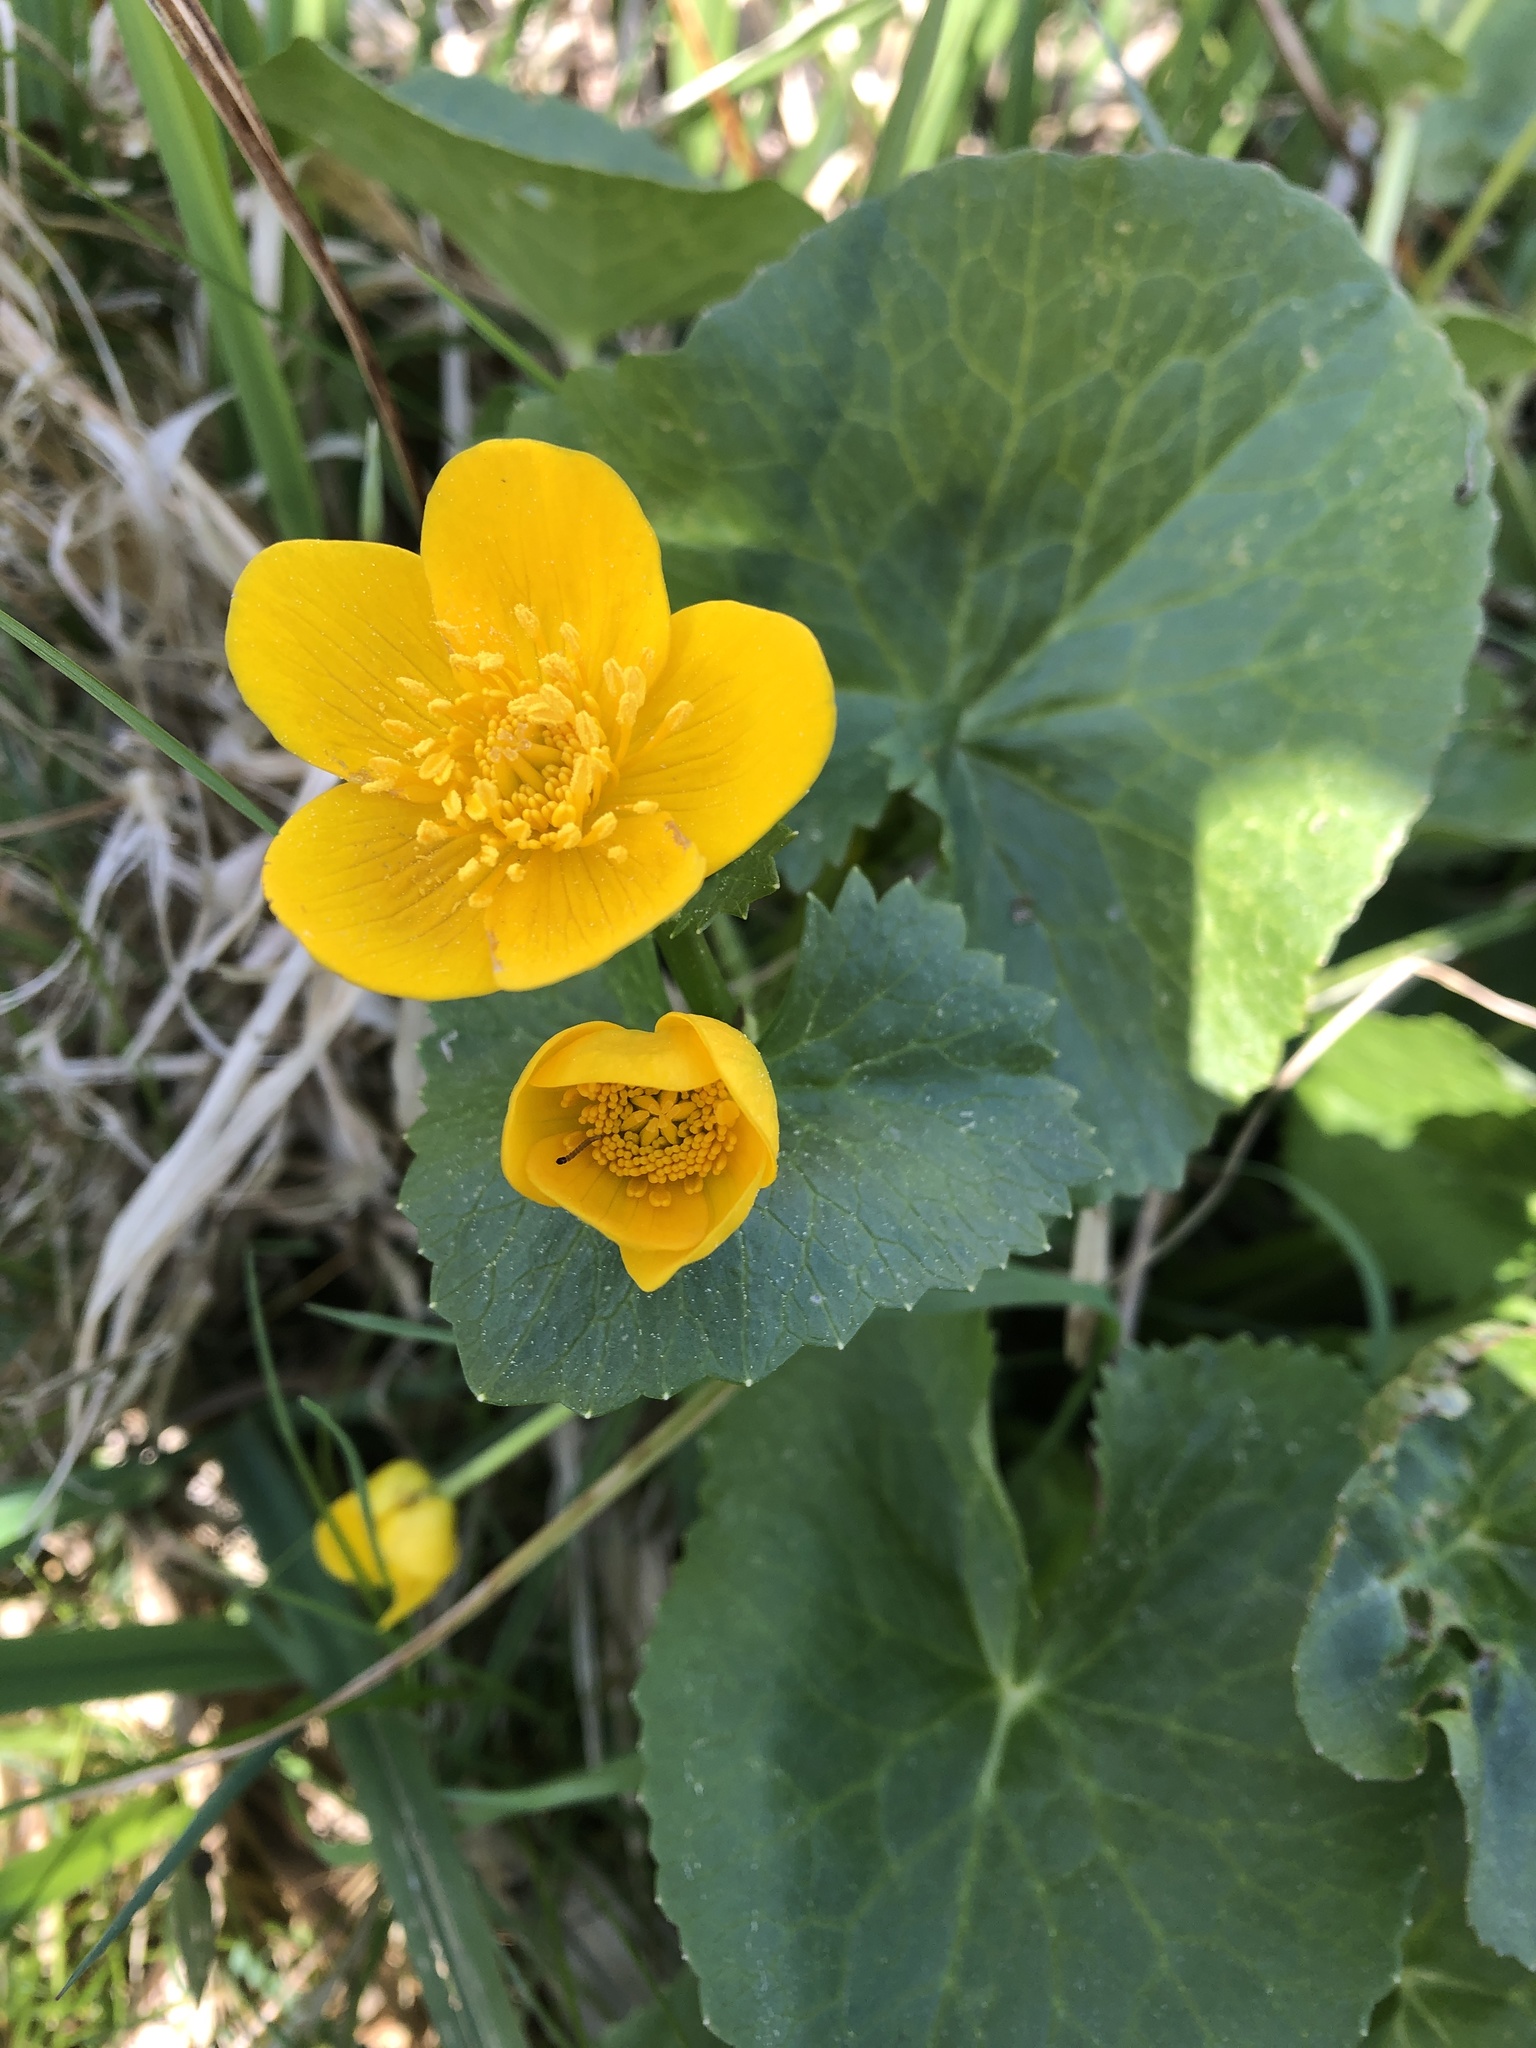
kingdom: Plantae
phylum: Tracheophyta
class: Magnoliopsida
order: Ranunculales
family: Ranunculaceae
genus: Caltha
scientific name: Caltha palustris
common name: Marsh marigold
